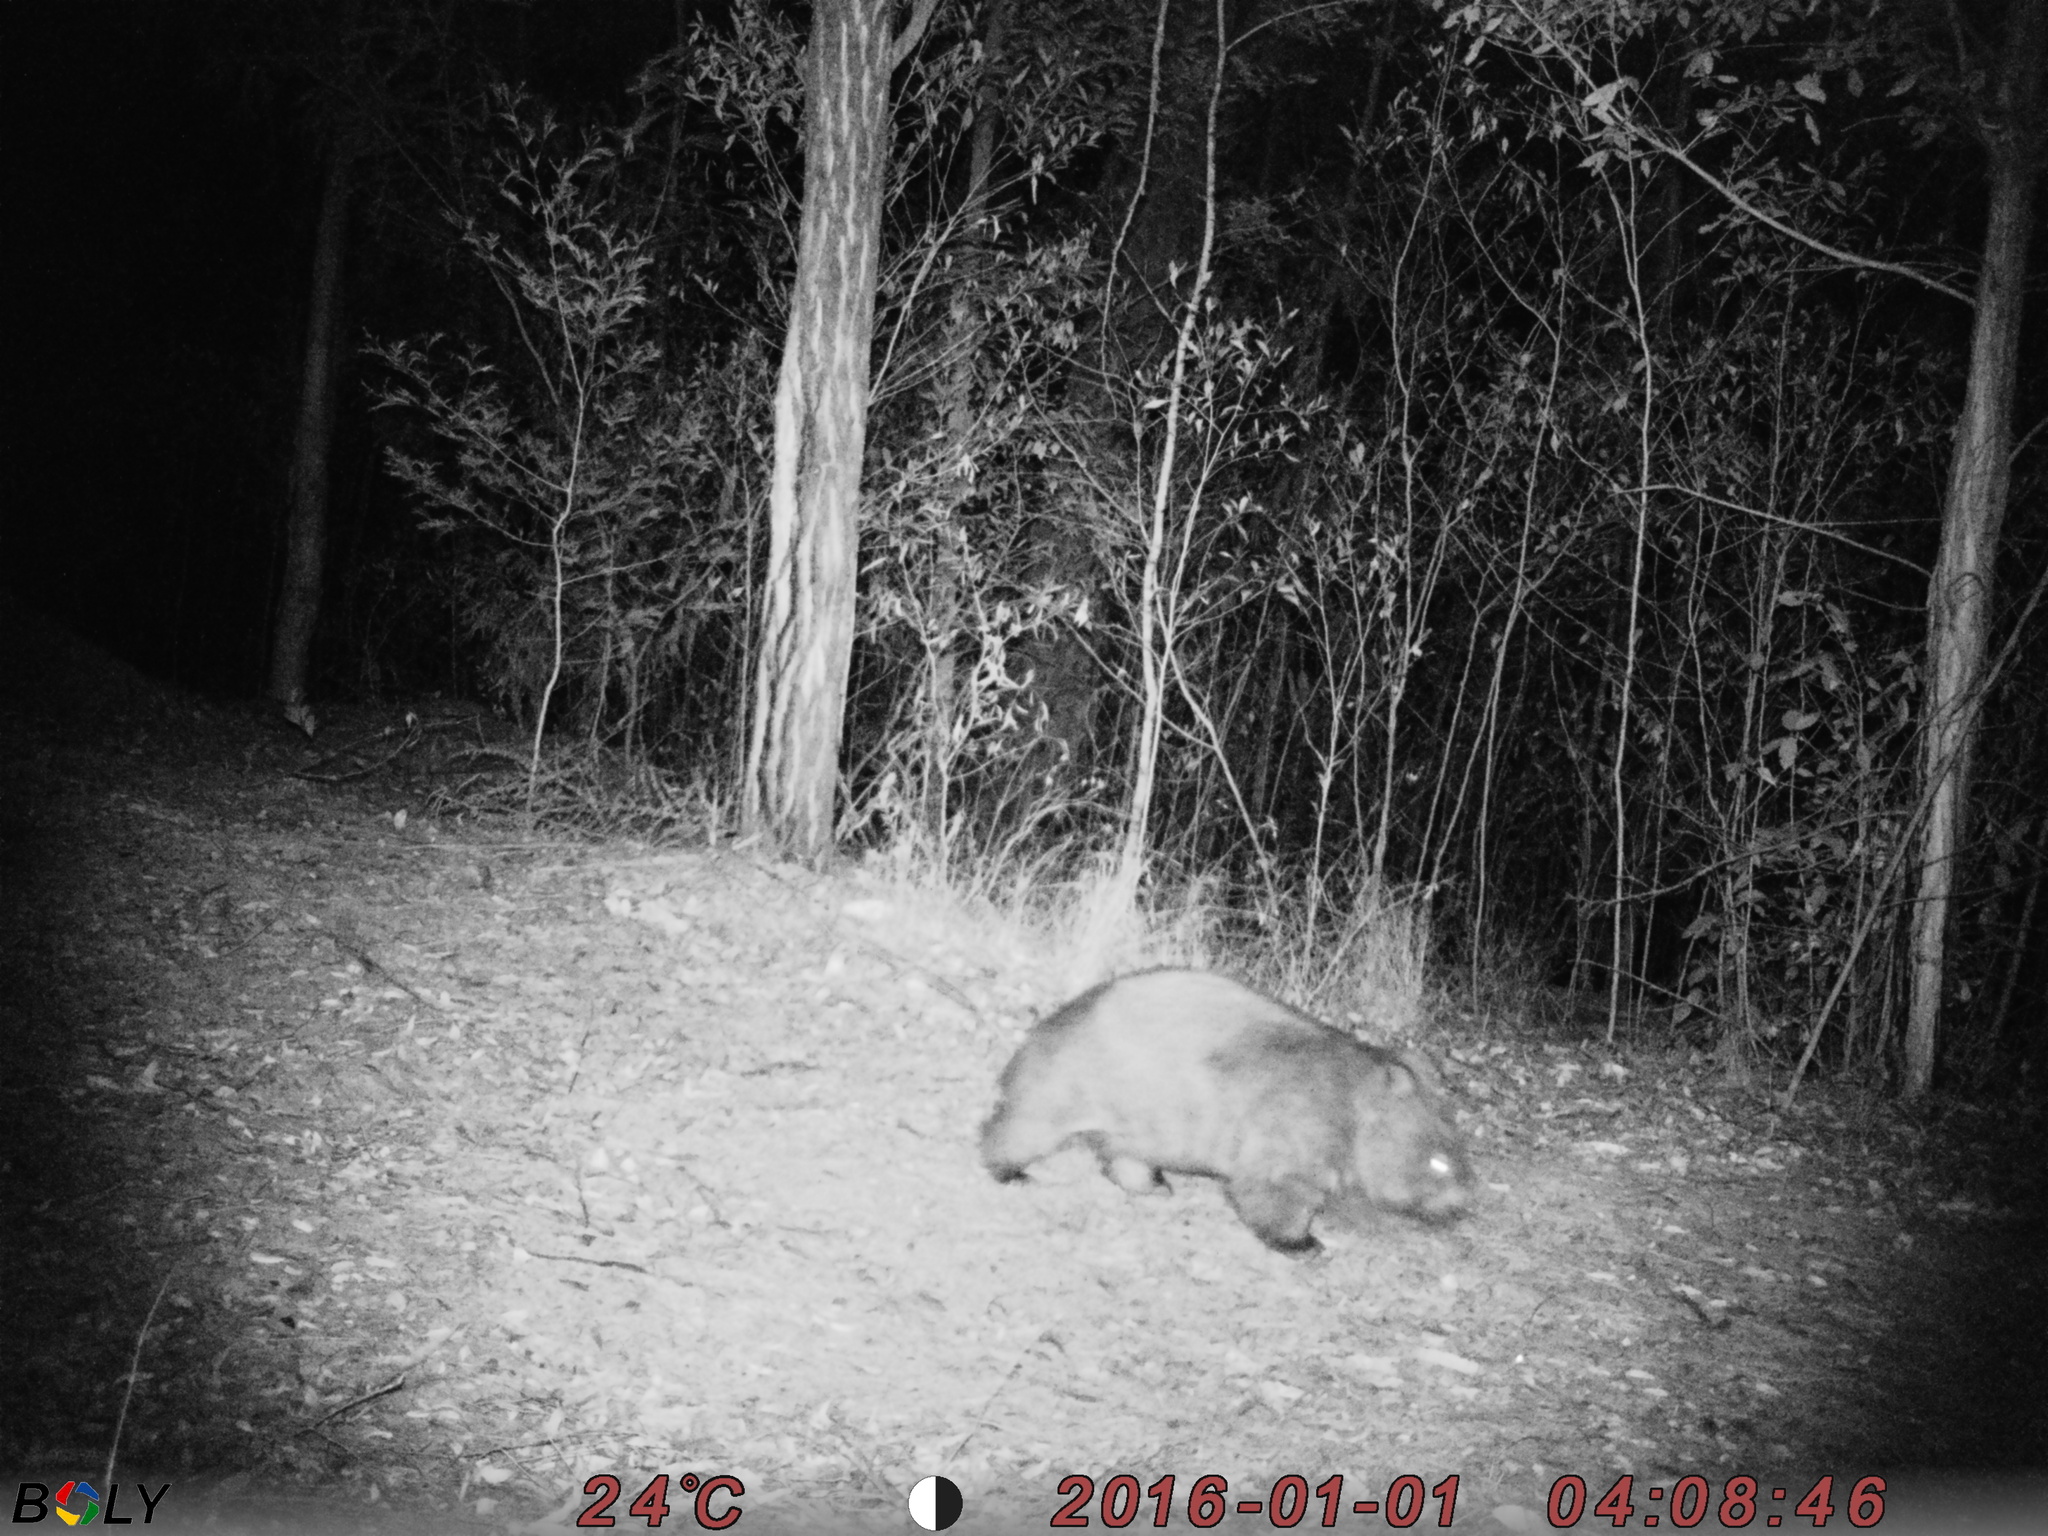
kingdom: Animalia
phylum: Chordata
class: Mammalia
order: Diprotodontia
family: Vombatidae
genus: Vombatus
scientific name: Vombatus ursinus
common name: Common wombat
